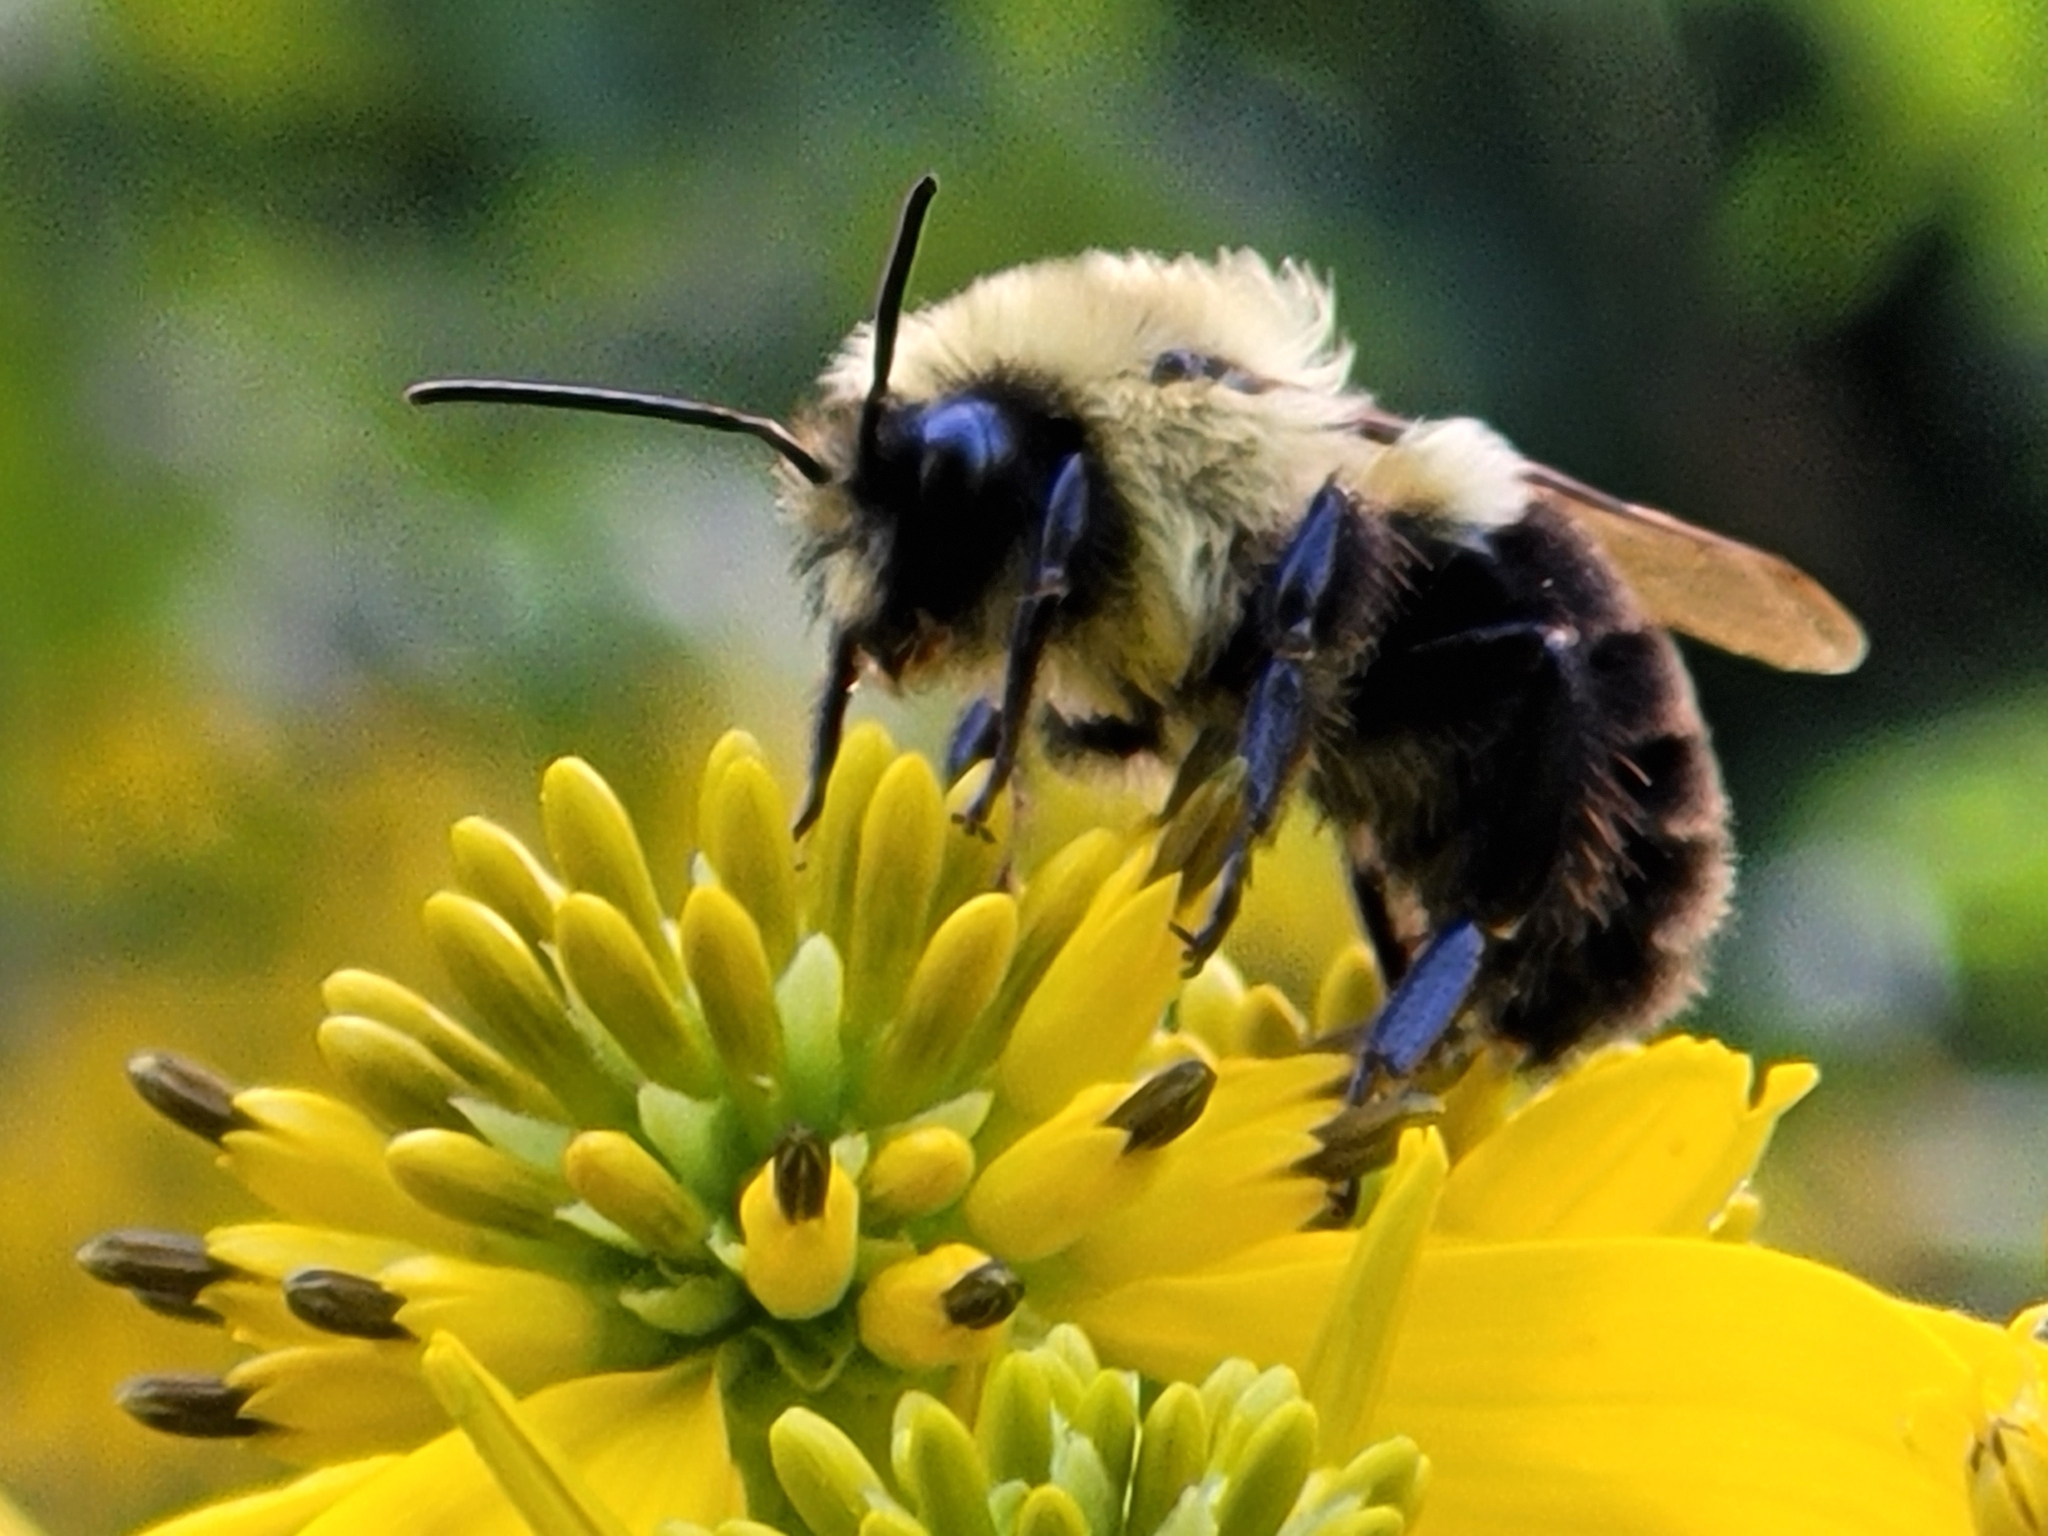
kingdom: Animalia
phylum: Arthropoda
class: Insecta
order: Hymenoptera
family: Apidae
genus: Bombus
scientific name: Bombus impatiens
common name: Common eastern bumble bee
